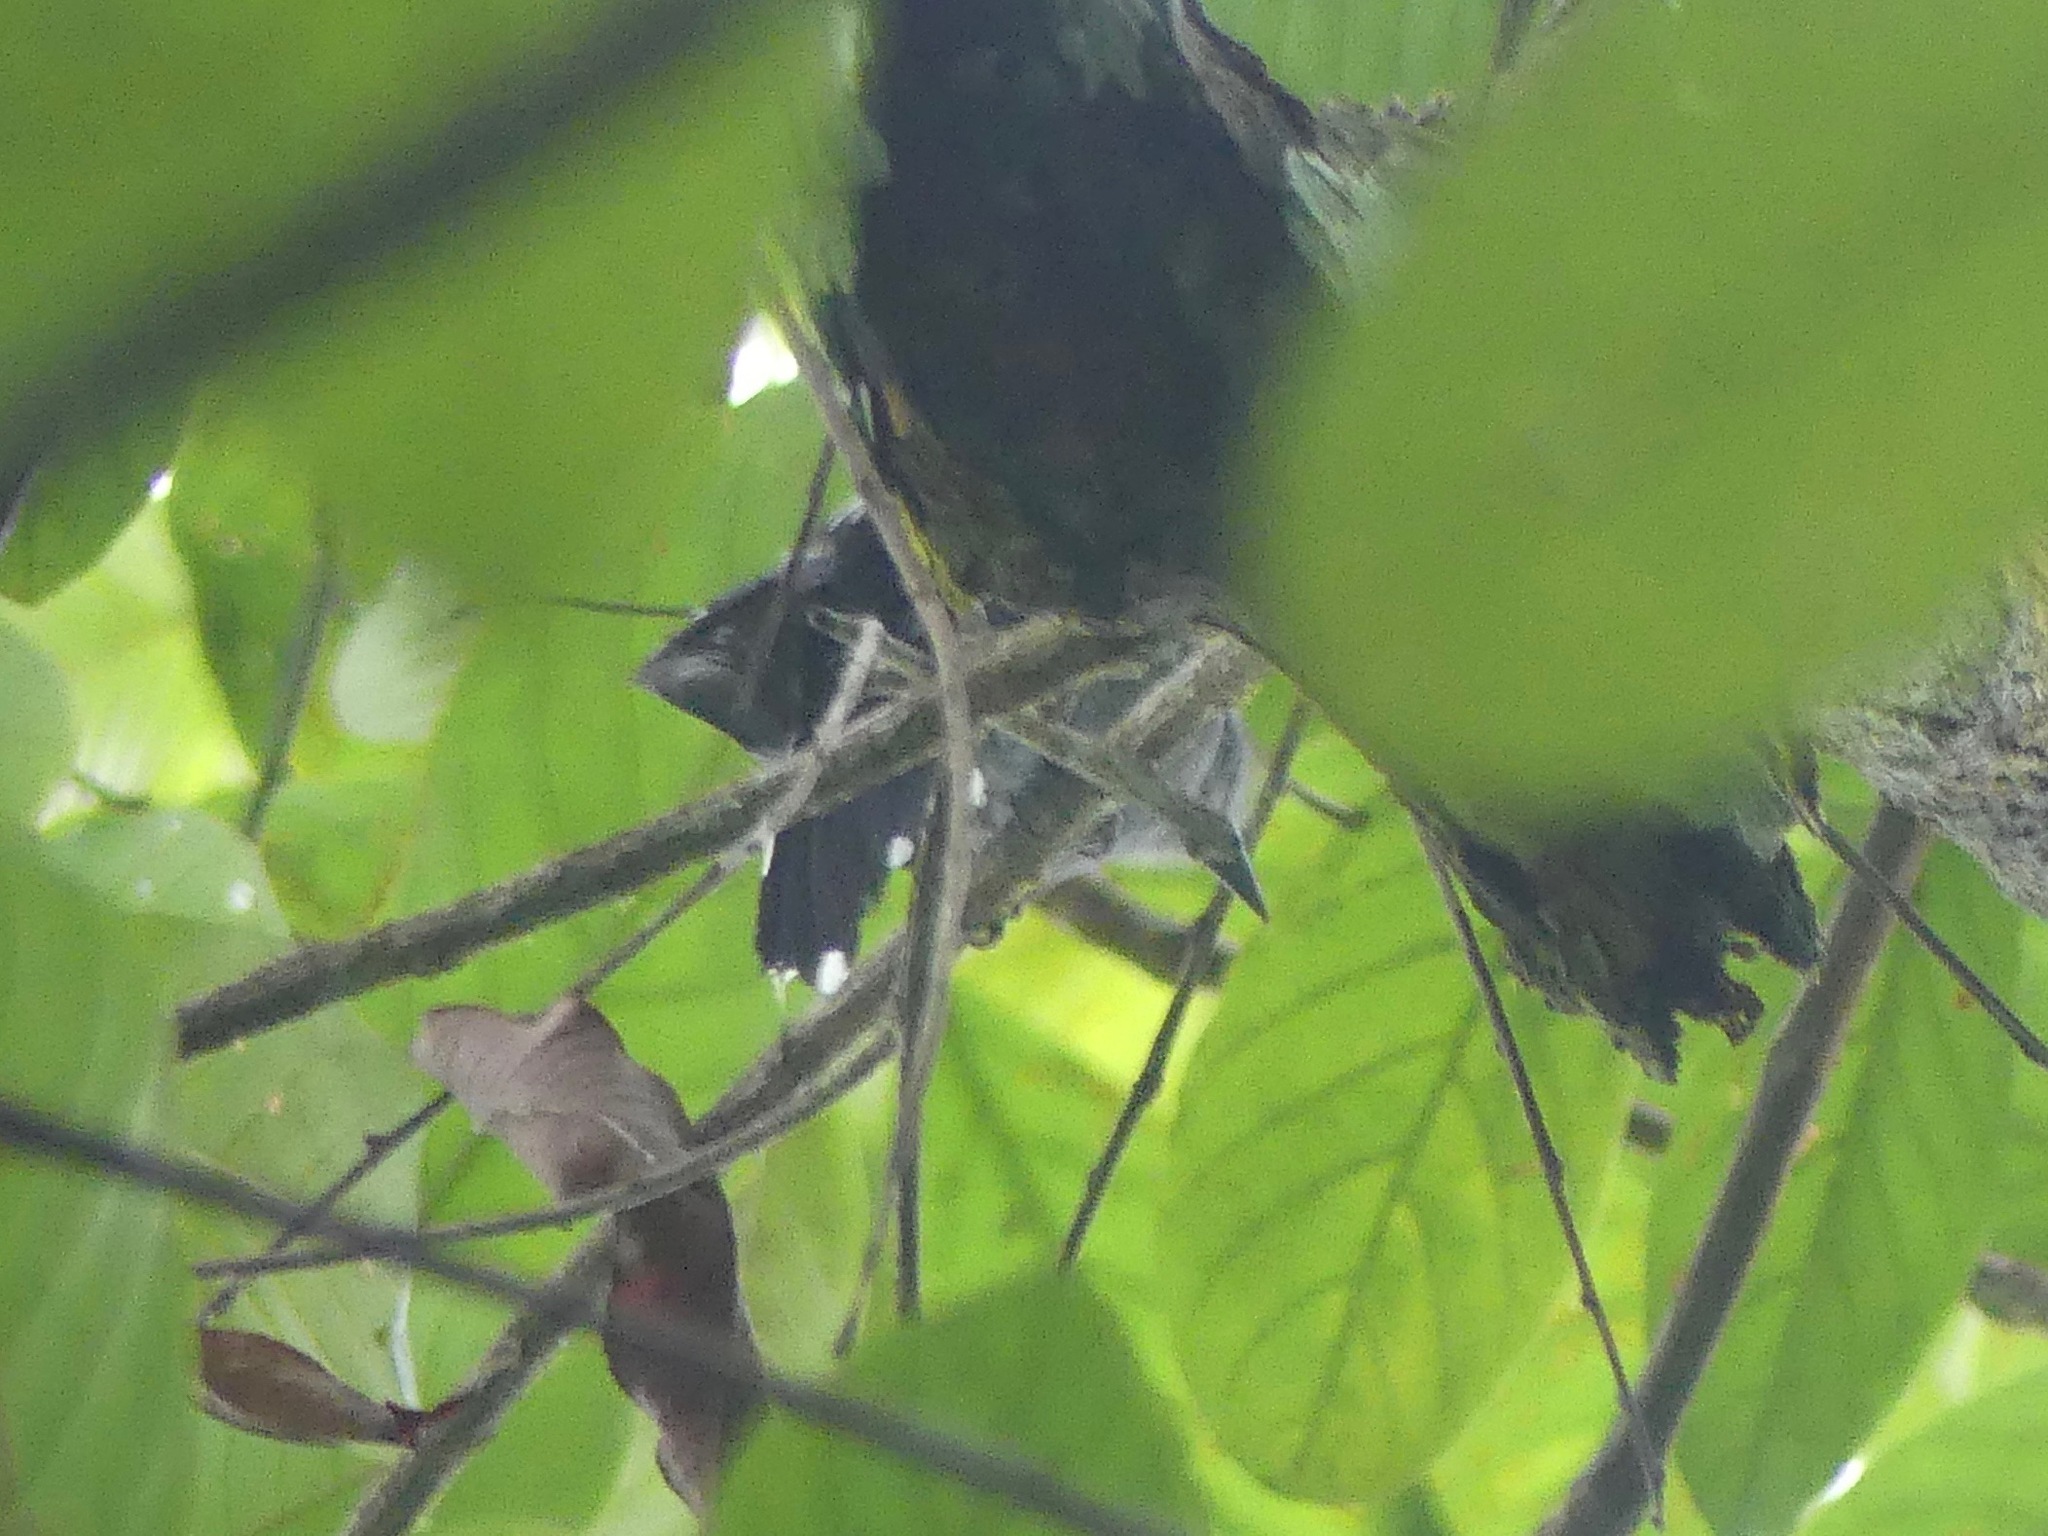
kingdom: Animalia
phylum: Chordata
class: Aves
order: Passeriformes
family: Thamnophilidae
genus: Thamnophilus
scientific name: Thamnophilus amazonicus
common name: Amazonian antshrike
